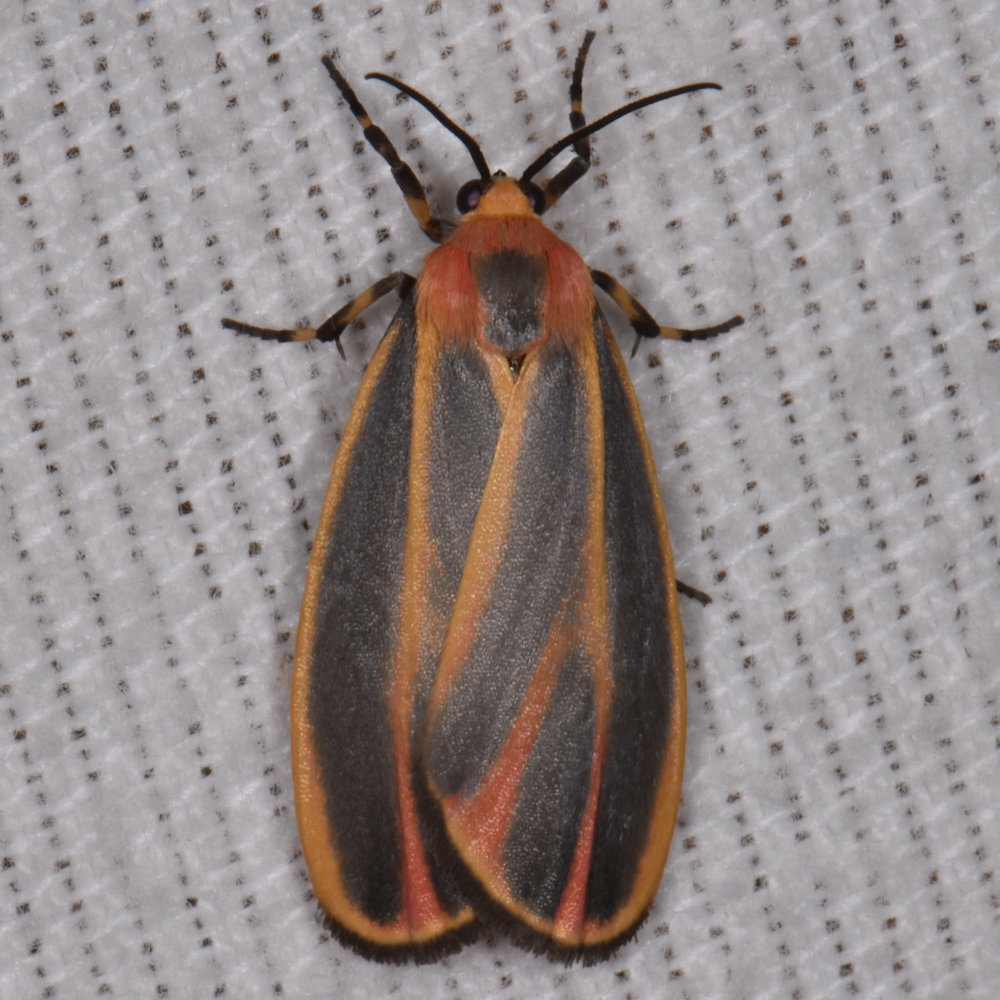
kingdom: Animalia
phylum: Arthropoda
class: Insecta
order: Lepidoptera
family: Erebidae
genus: Hypoprepia
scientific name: Hypoprepia fucosa
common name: Painted lichen moth
